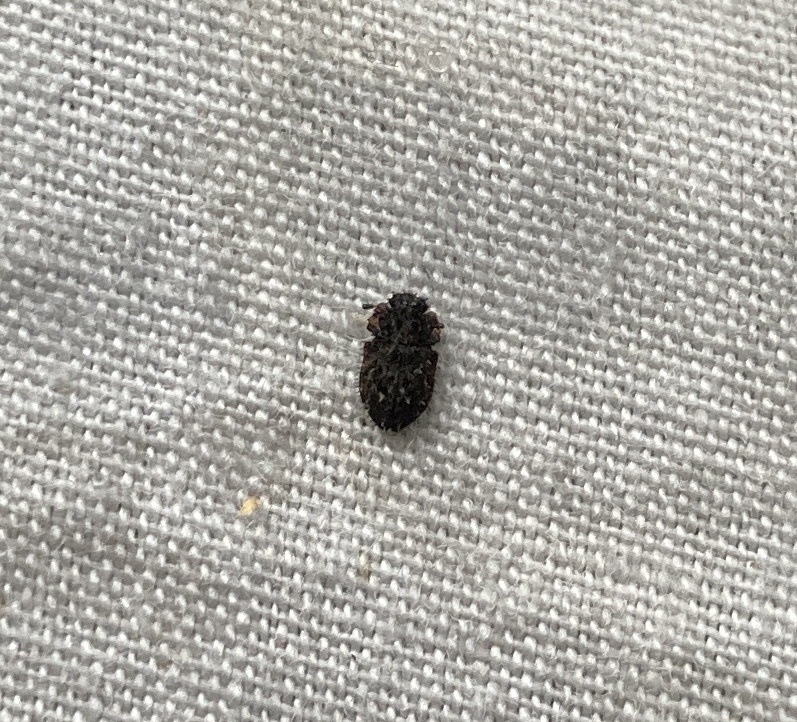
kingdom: Animalia
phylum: Arthropoda
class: Insecta
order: Coleoptera
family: Nitidulidae
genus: Hisparonia
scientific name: Hisparonia
